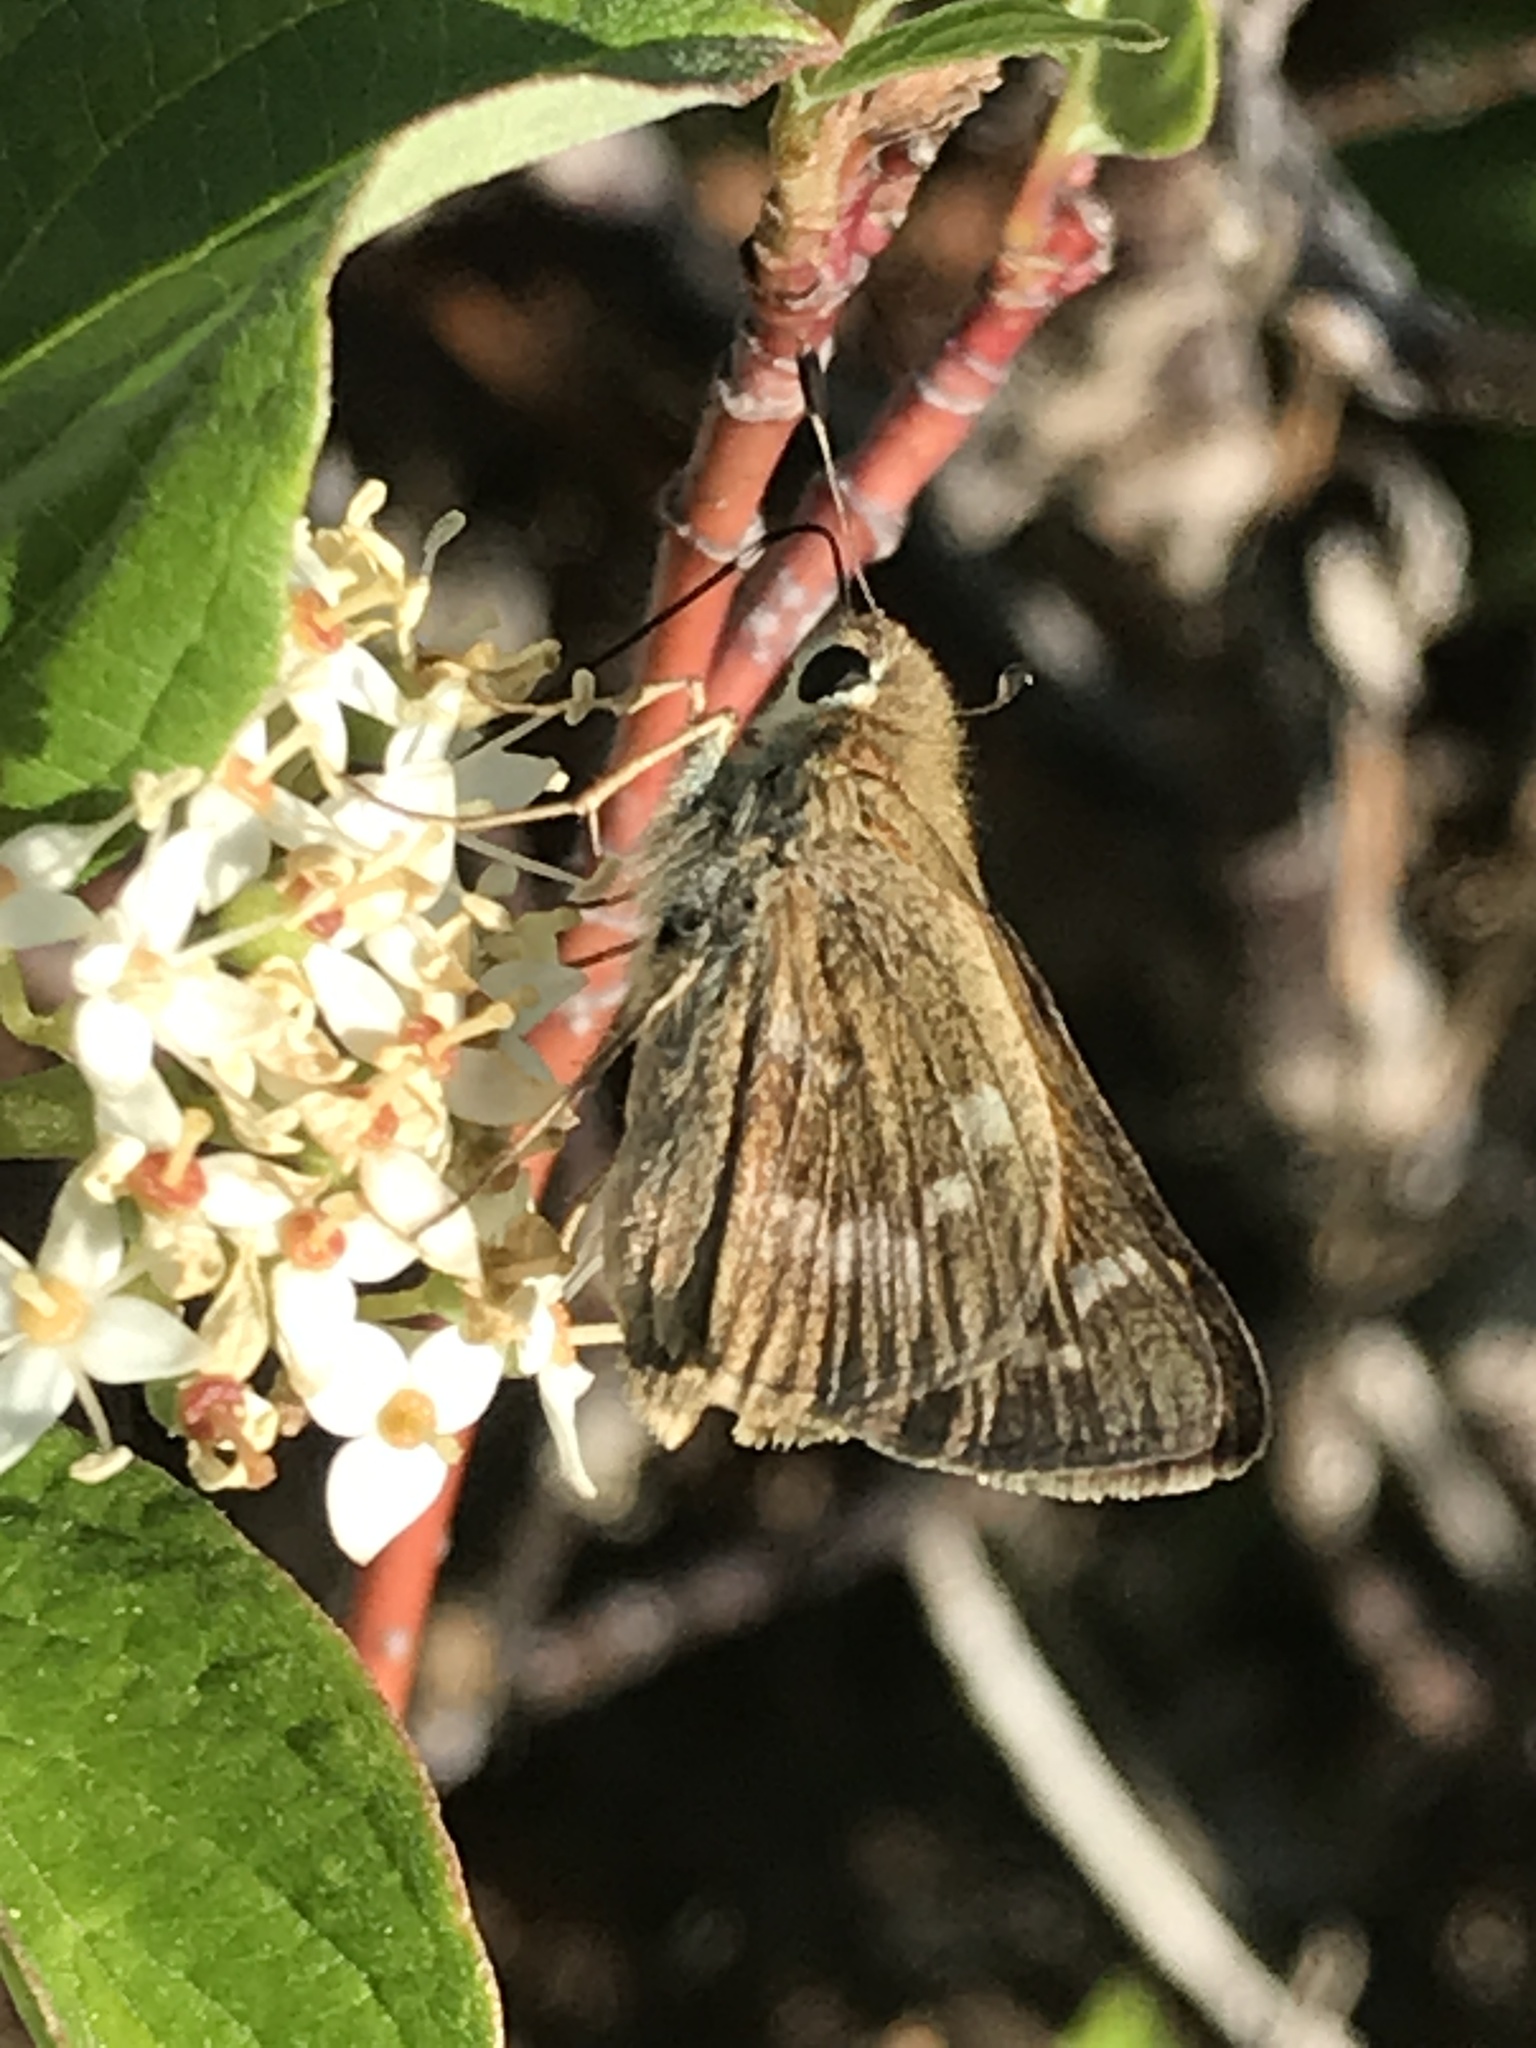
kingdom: Animalia
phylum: Arthropoda
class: Insecta
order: Lepidoptera
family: Hesperiidae
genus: Atalopedes
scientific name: Atalopedes
